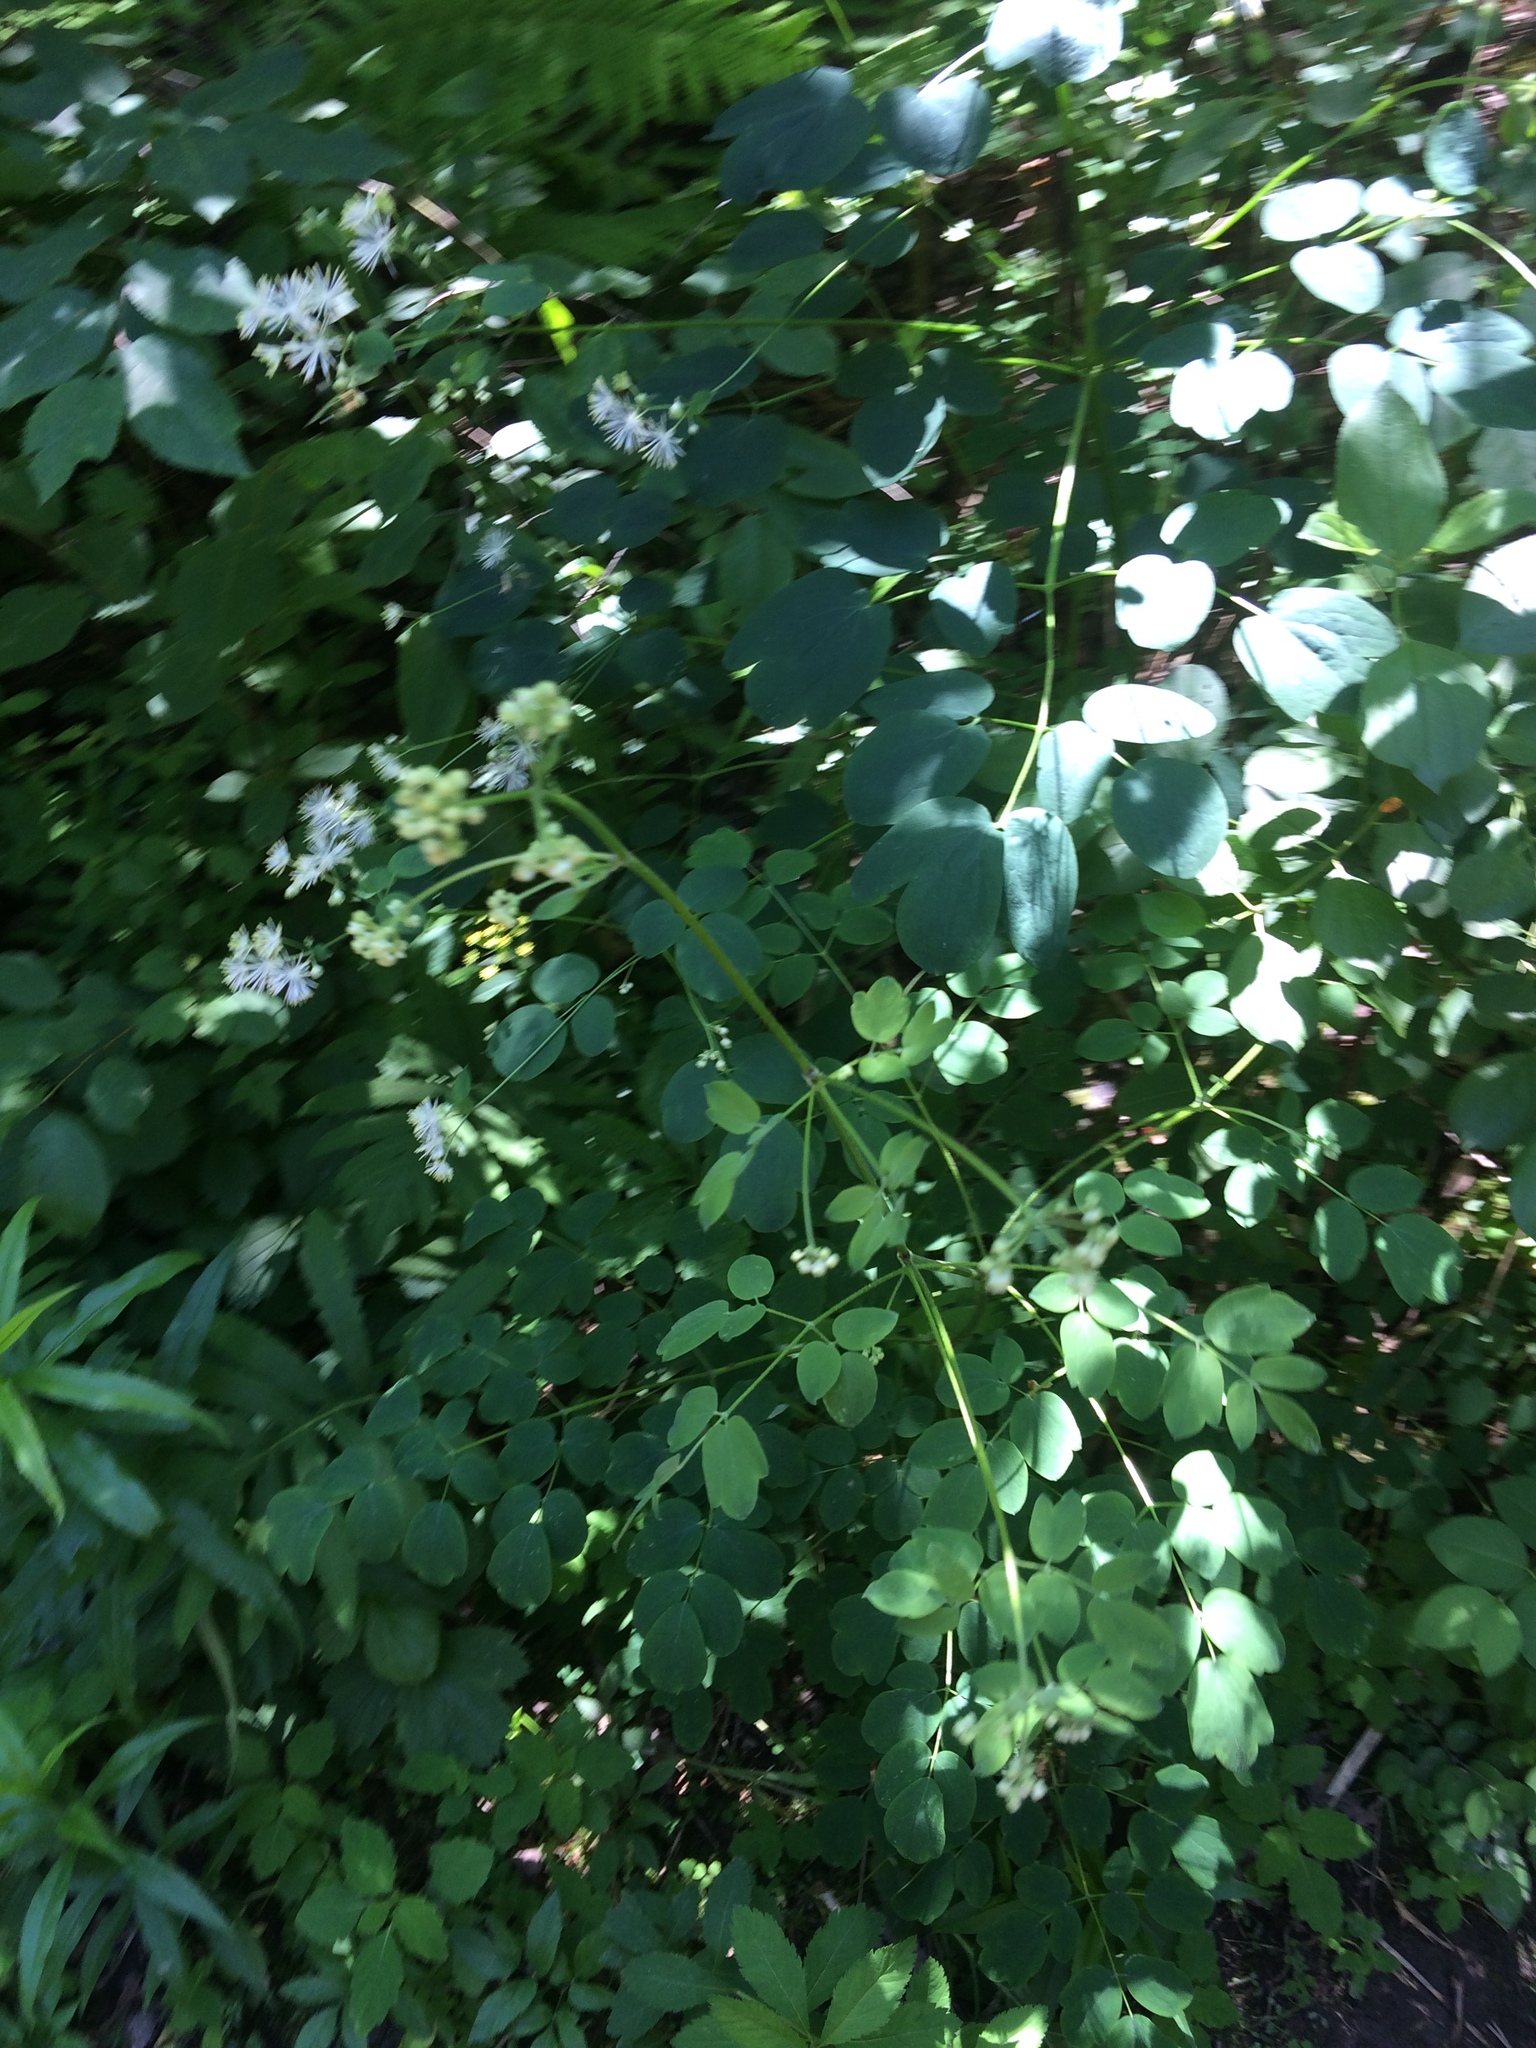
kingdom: Plantae
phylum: Tracheophyta
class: Magnoliopsida
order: Ranunculales
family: Ranunculaceae
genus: Thalictrum
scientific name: Thalictrum pubescens
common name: King-of-the-meadow
